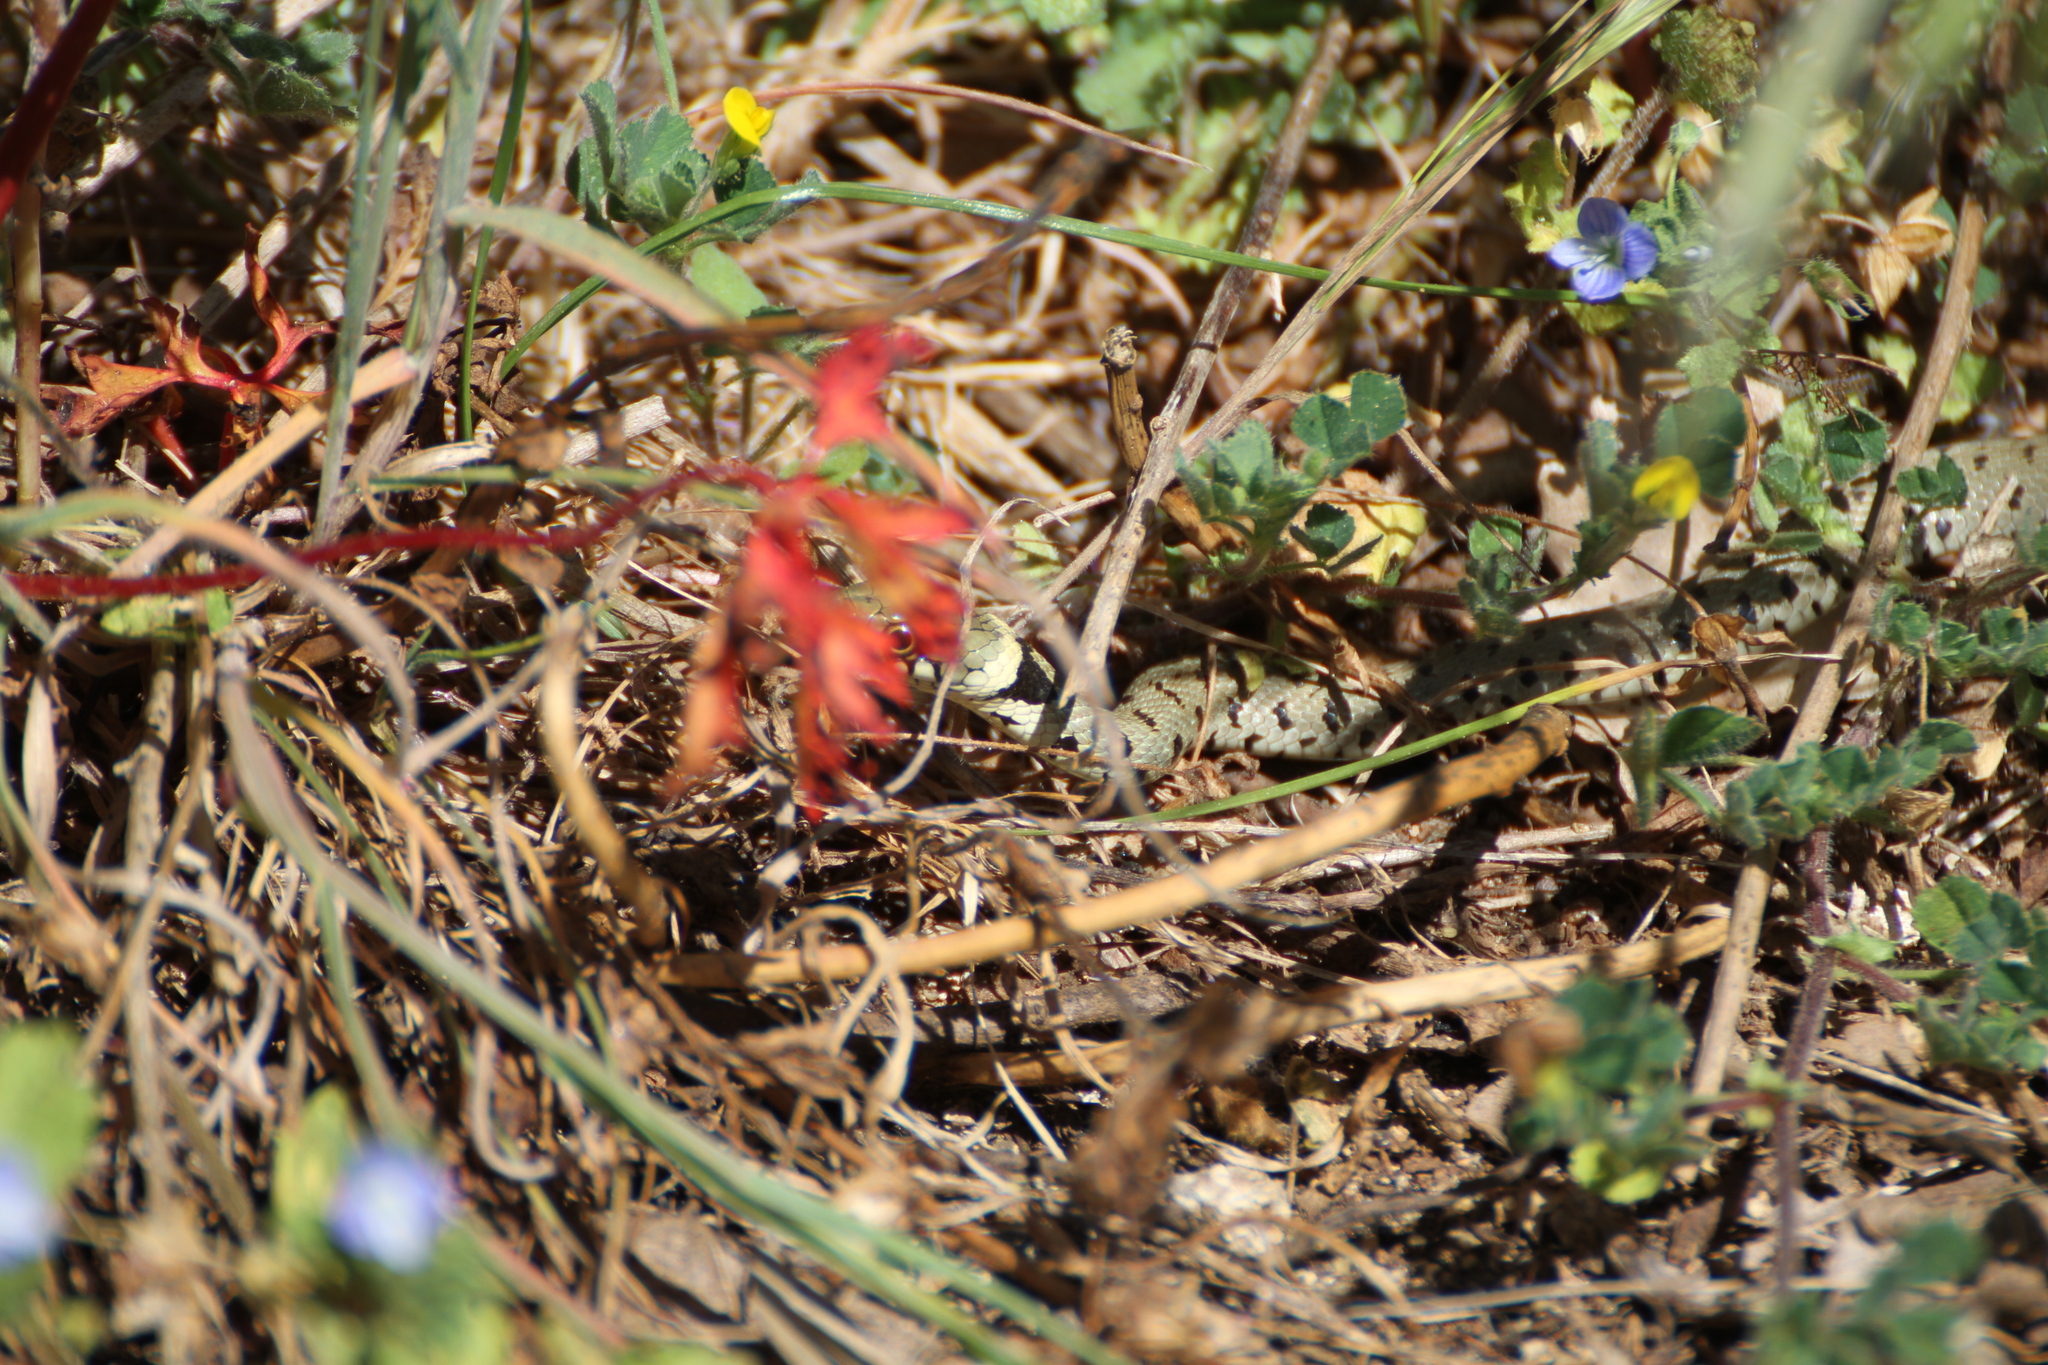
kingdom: Animalia
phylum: Chordata
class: Squamata
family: Colubridae
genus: Natrix
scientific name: Natrix helvetica
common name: Banded grass snake
